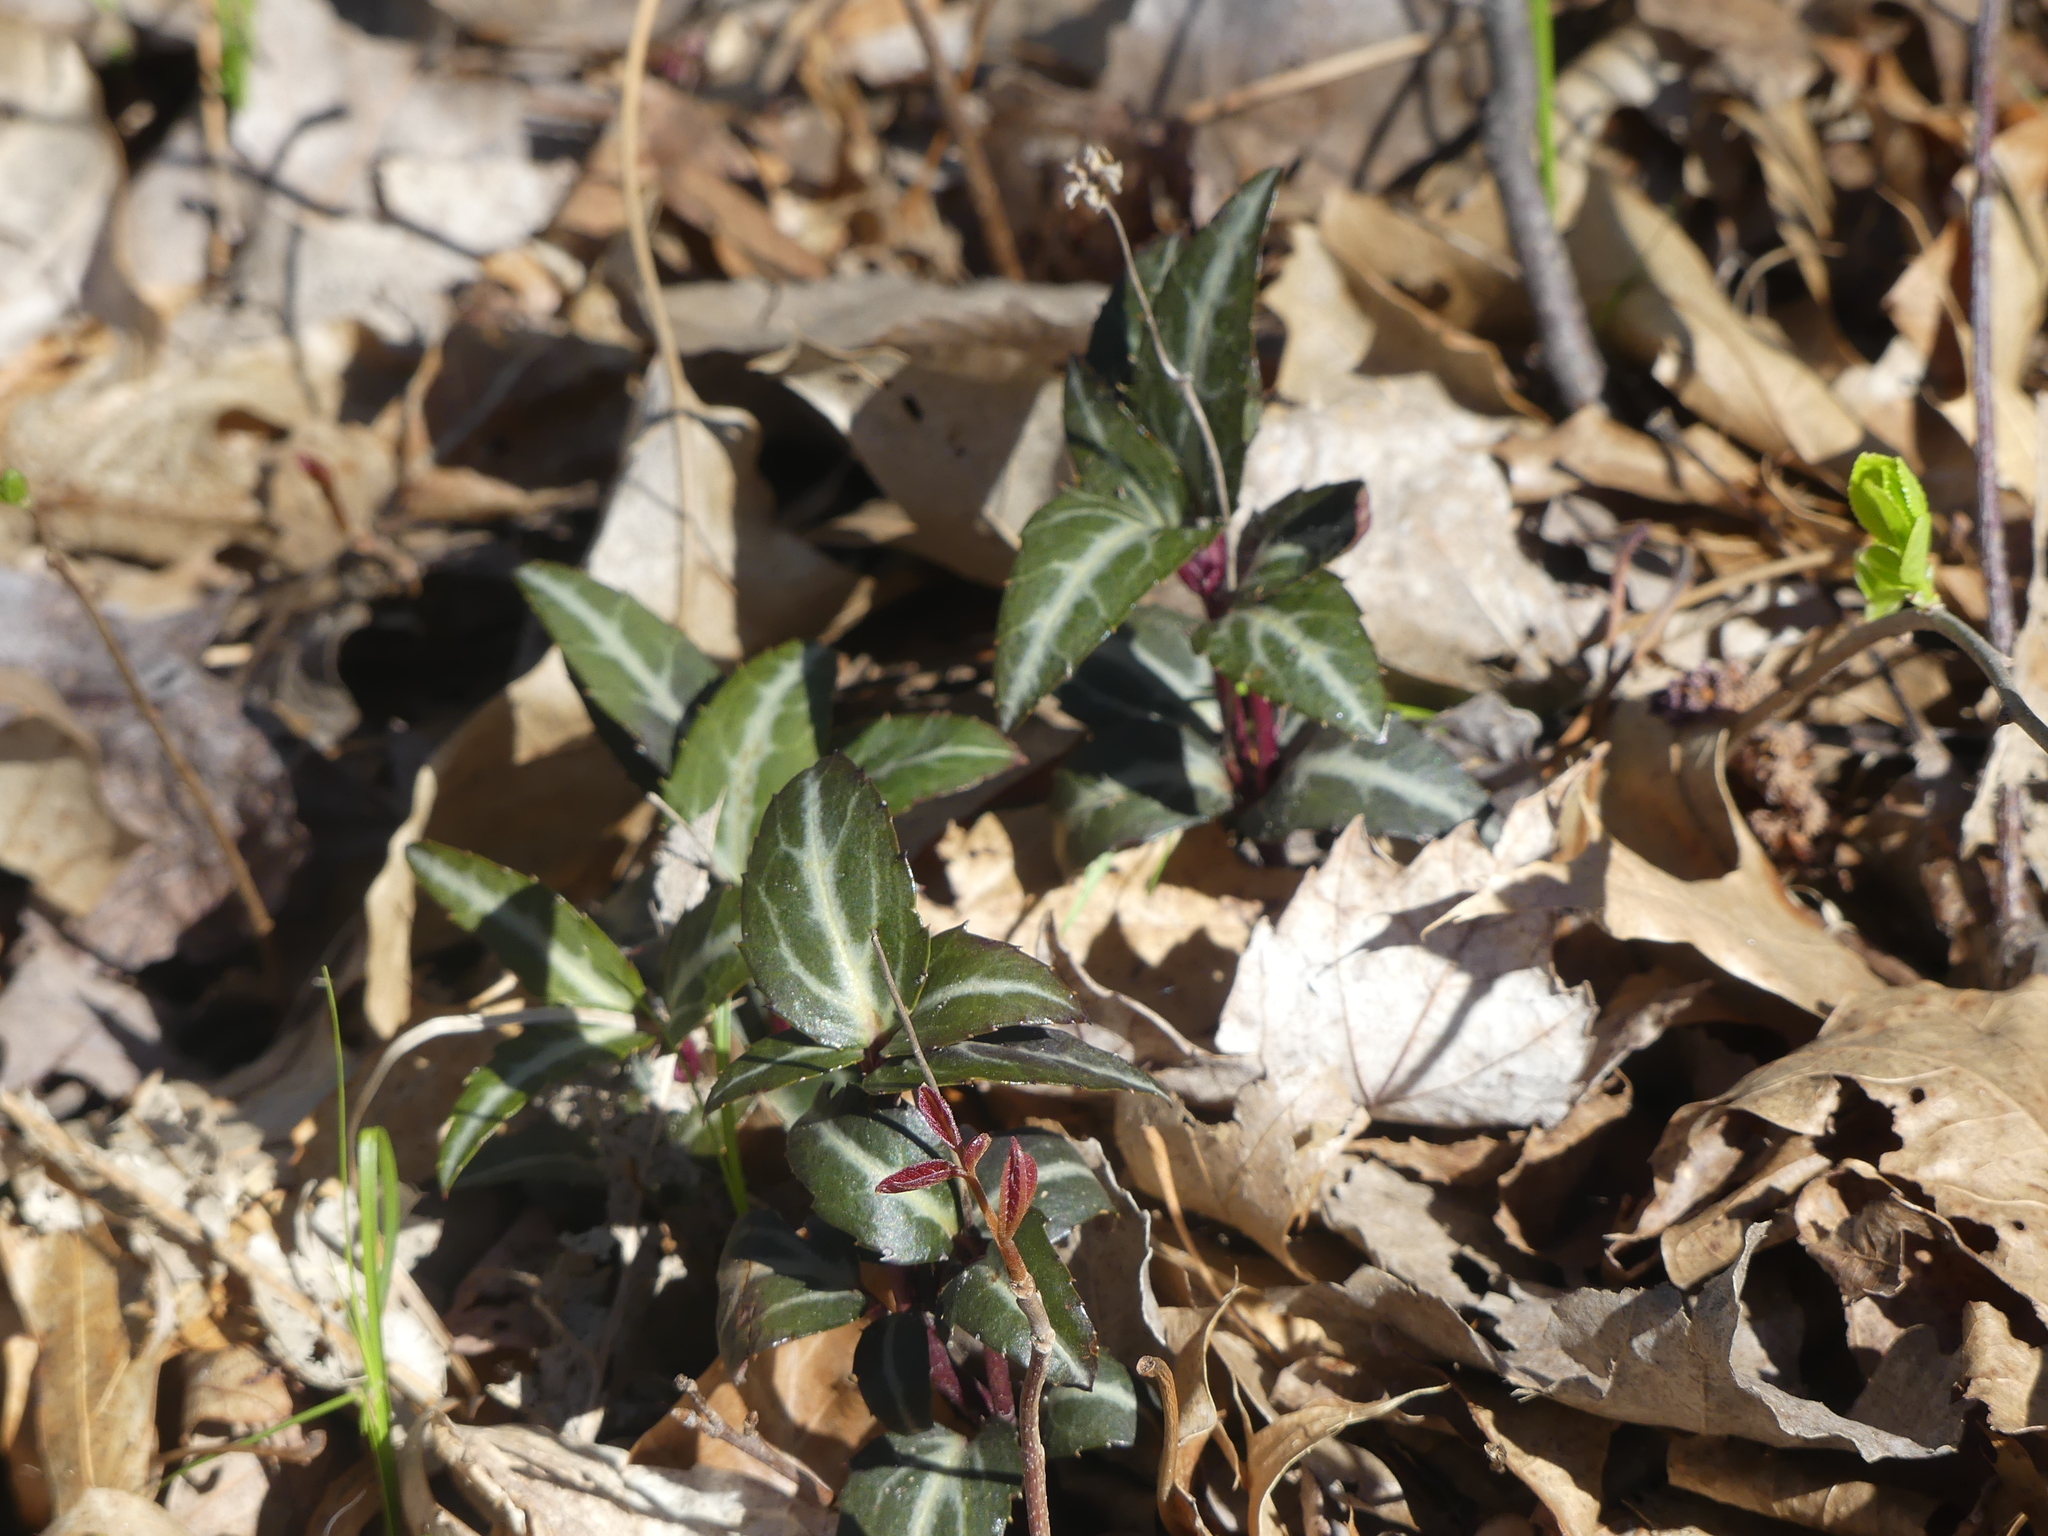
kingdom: Plantae
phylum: Tracheophyta
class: Magnoliopsida
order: Ericales
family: Ericaceae
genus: Chimaphila
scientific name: Chimaphila maculata
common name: Spotted pipsissewa
